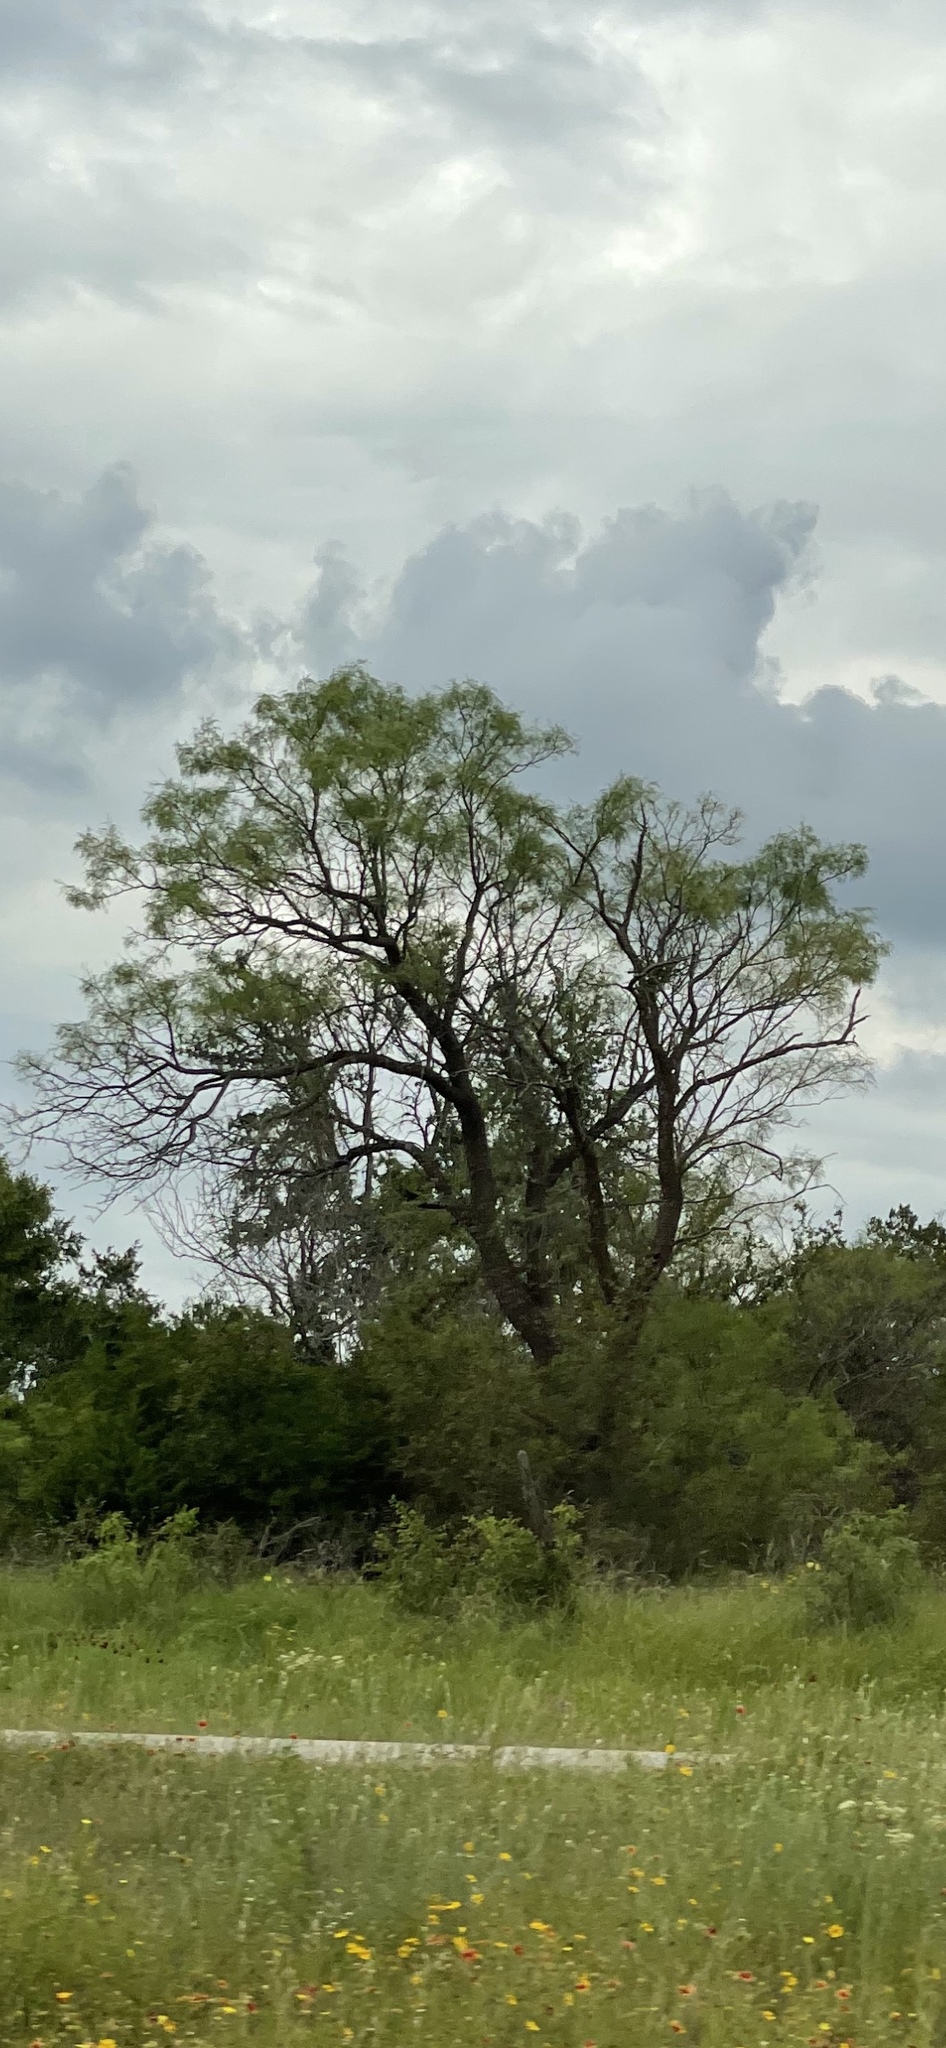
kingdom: Plantae
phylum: Tracheophyta
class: Magnoliopsida
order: Fabales
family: Fabaceae
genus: Prosopis
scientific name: Prosopis glandulosa
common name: Honey mesquite
